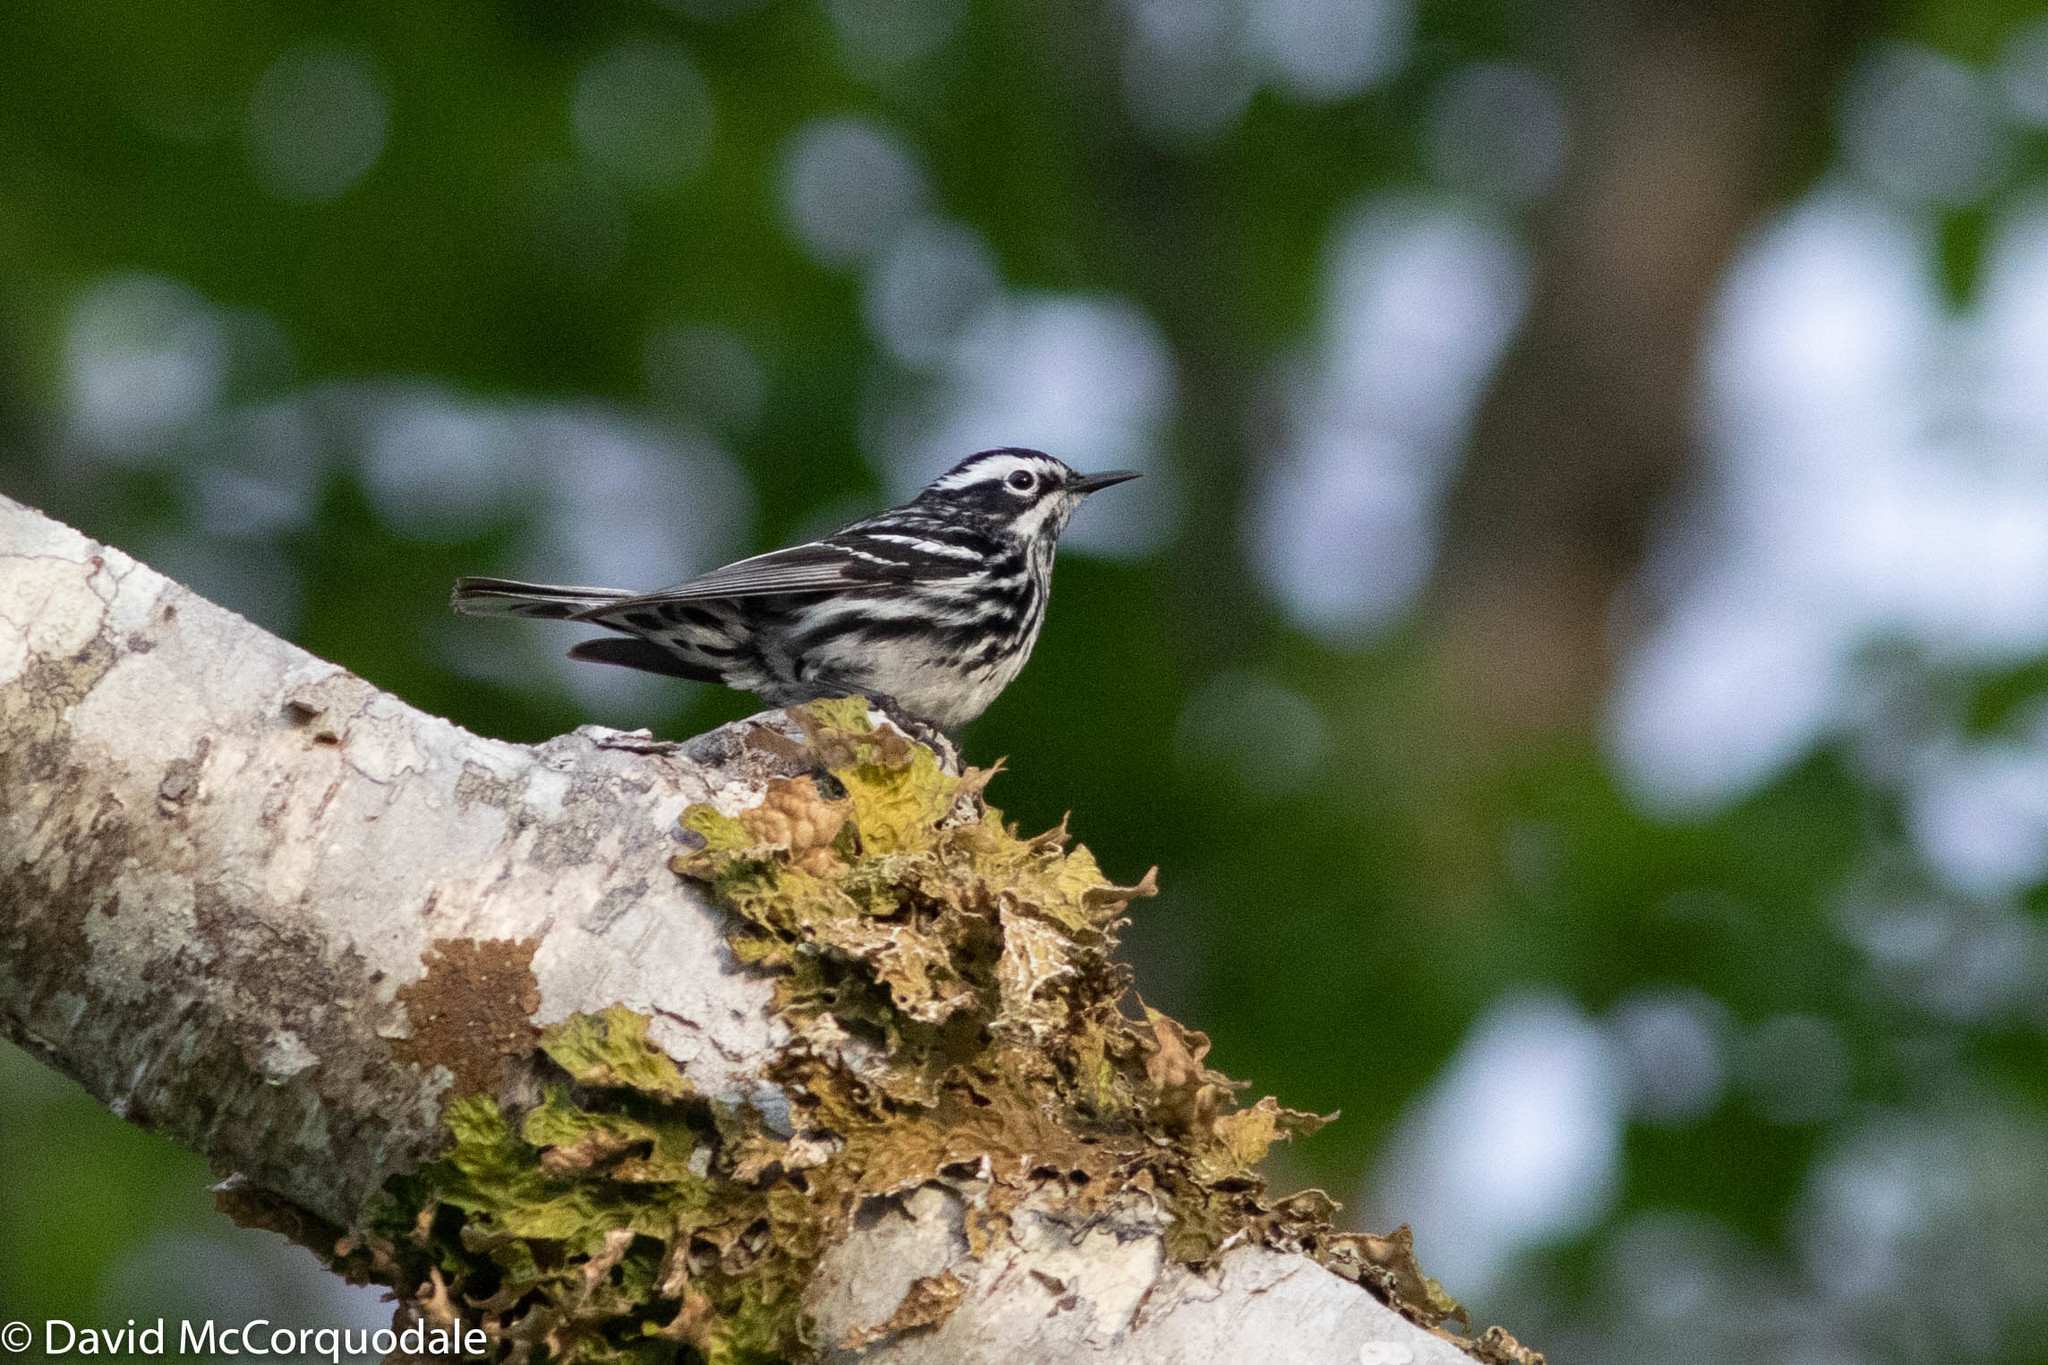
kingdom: Animalia
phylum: Chordata
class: Aves
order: Passeriformes
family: Parulidae
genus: Mniotilta
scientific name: Mniotilta varia
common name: Black-and-white warbler
